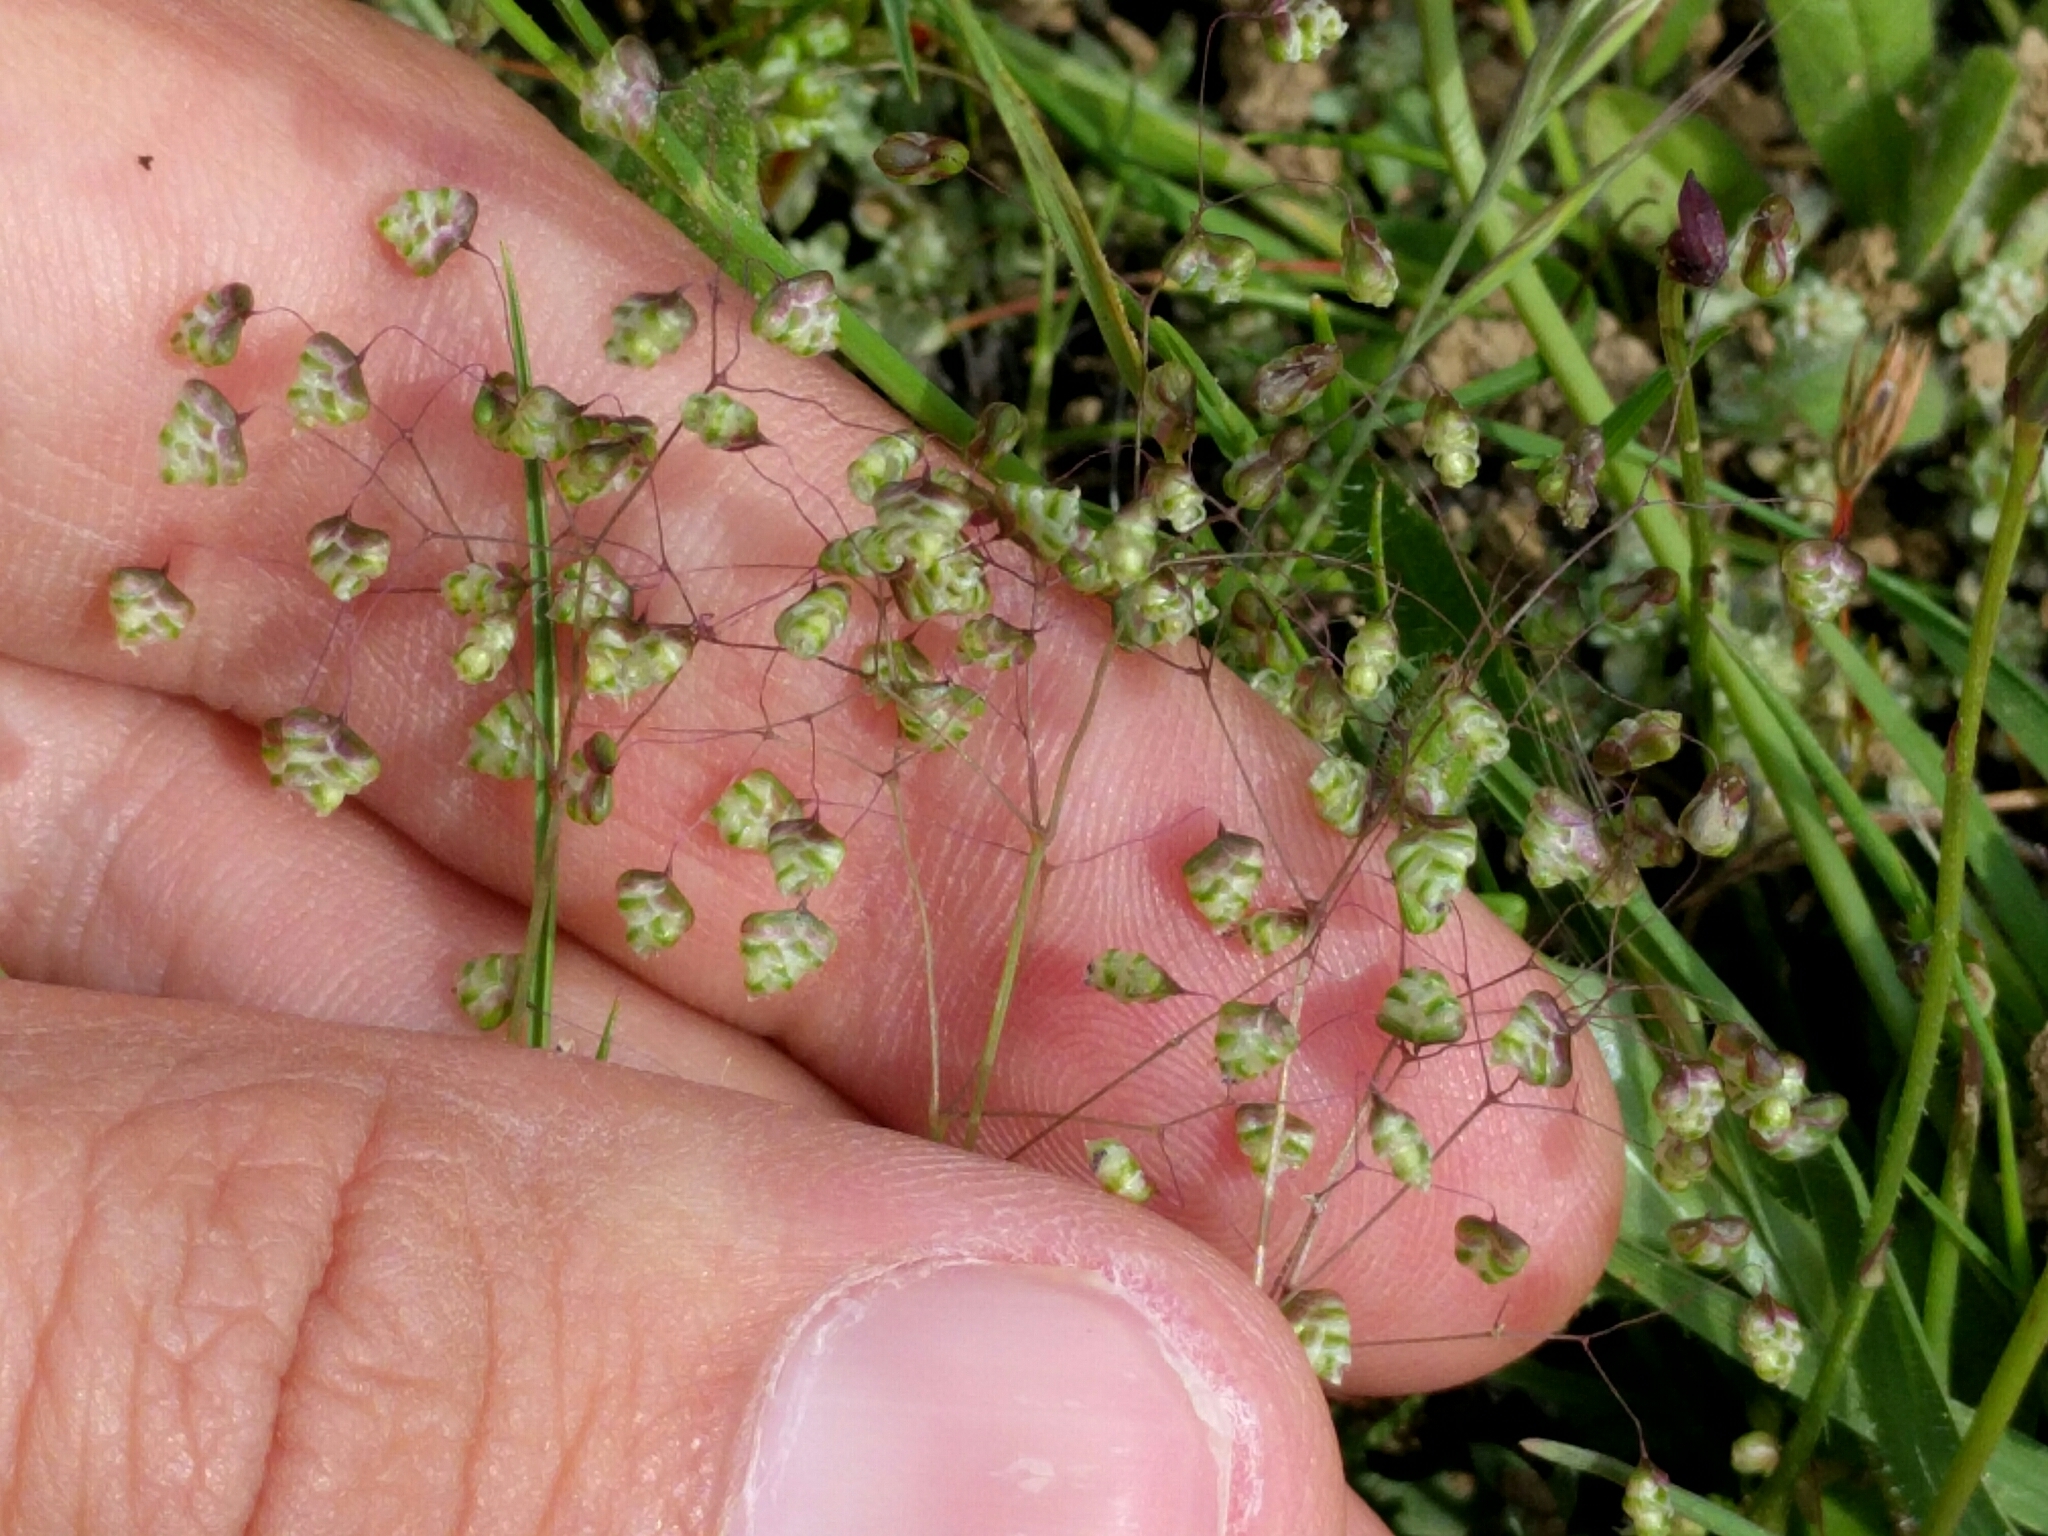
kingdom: Plantae
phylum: Tracheophyta
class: Liliopsida
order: Poales
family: Poaceae
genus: Briza
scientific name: Briza minor
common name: Lesser quaking-grass
